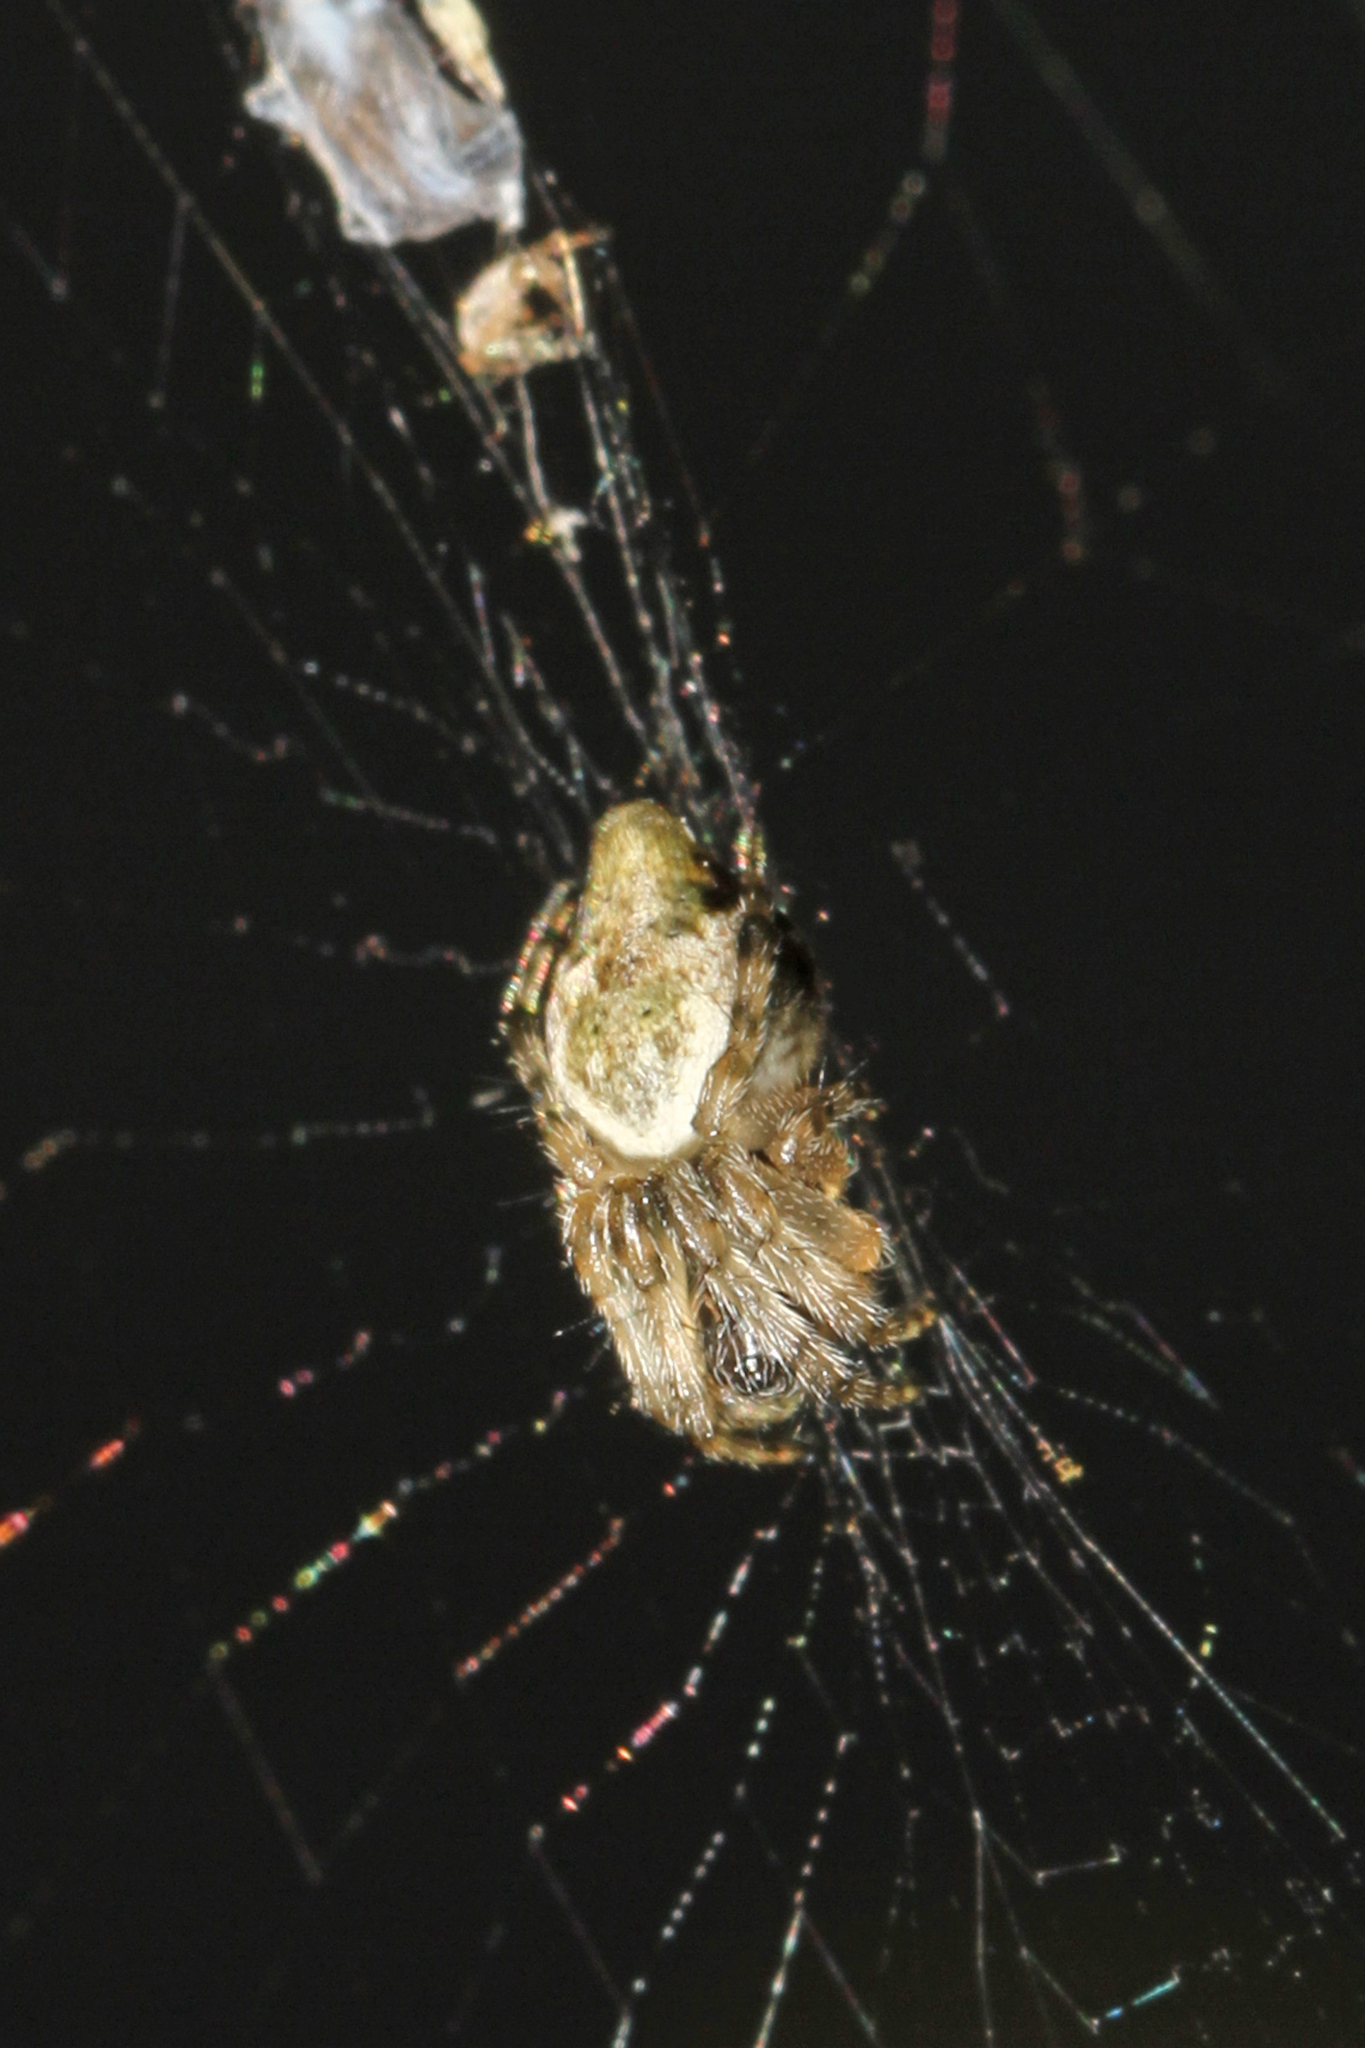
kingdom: Animalia
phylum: Arthropoda
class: Arachnida
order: Araneae
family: Araneidae
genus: Cyclosa
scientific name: Cyclosa conica
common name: Conical trashline orbweaver
